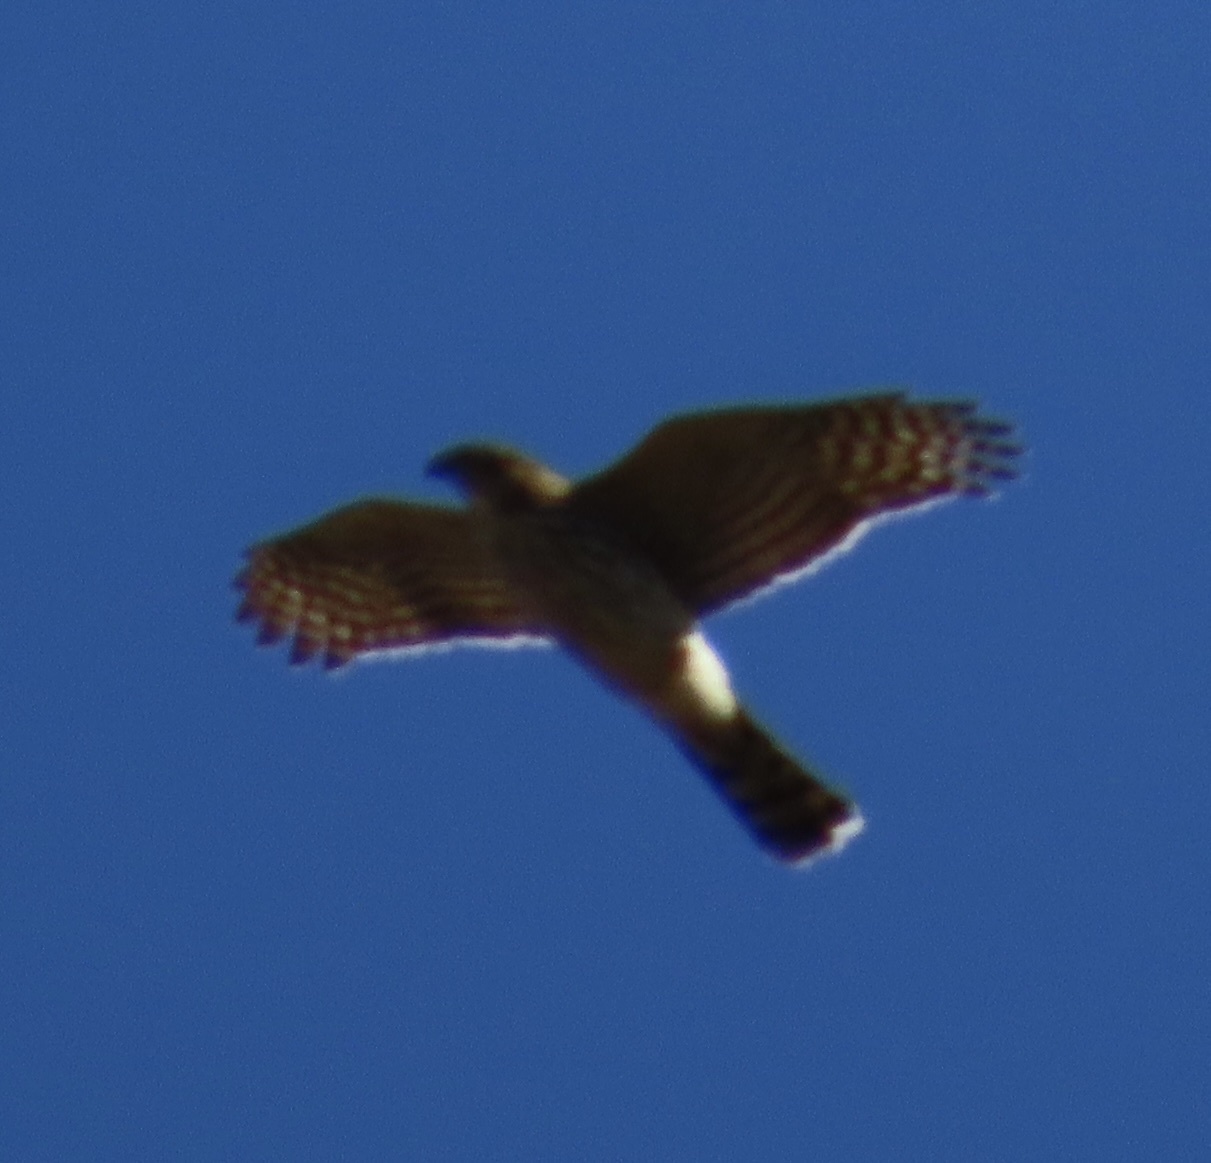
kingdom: Animalia
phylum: Chordata
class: Aves
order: Accipitriformes
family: Accipitridae
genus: Accipiter
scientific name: Accipiter cooperii
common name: Cooper's hawk
